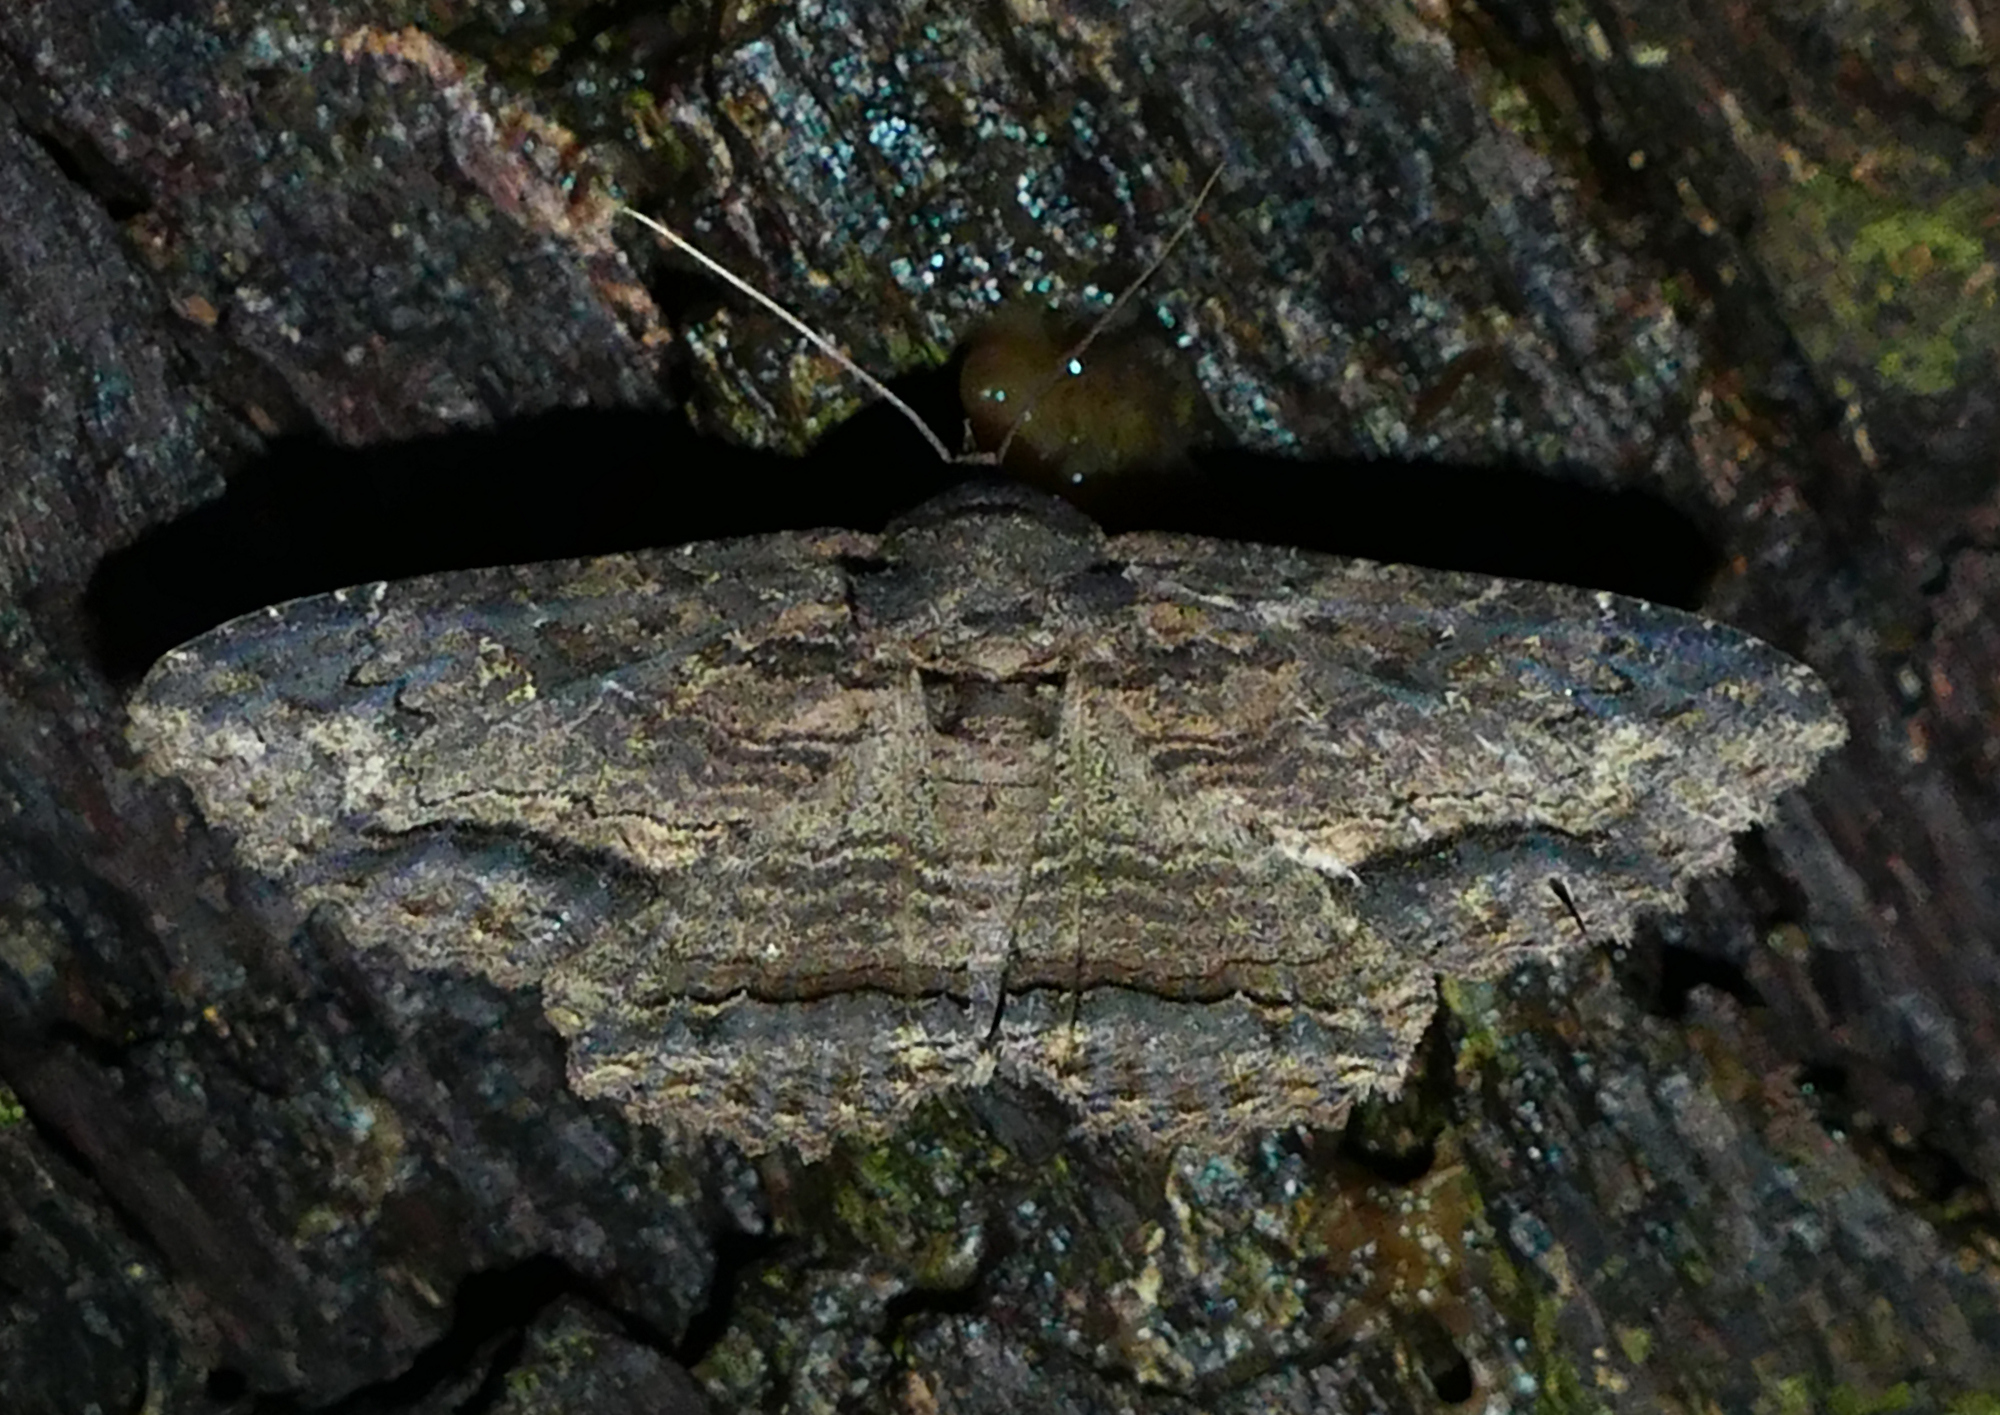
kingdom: Animalia
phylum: Arthropoda
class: Insecta
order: Lepidoptera
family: Erebidae
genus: Zale
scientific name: Zale lunata
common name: Lunate zale moth
